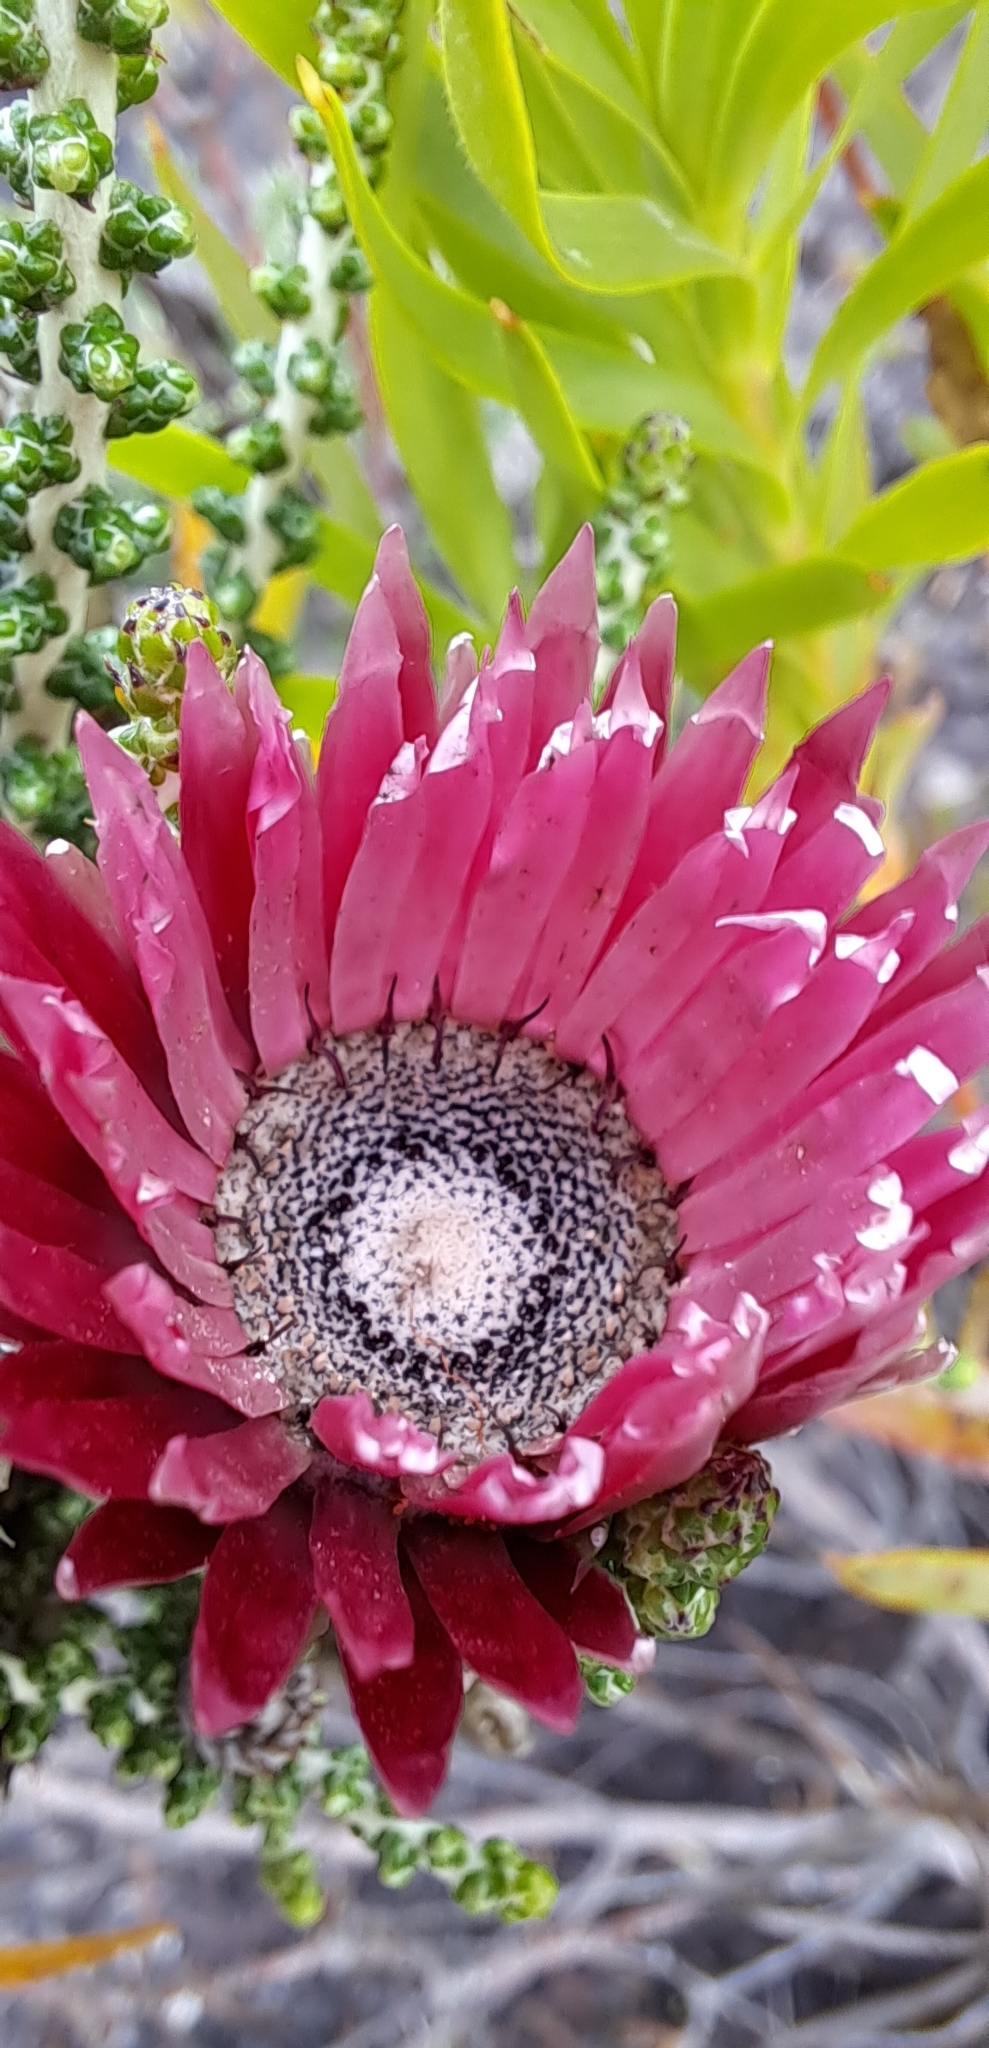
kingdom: Plantae
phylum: Tracheophyta
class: Magnoliopsida
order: Asterales
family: Asteraceae
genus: Phaenocoma
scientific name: Phaenocoma prolifera
